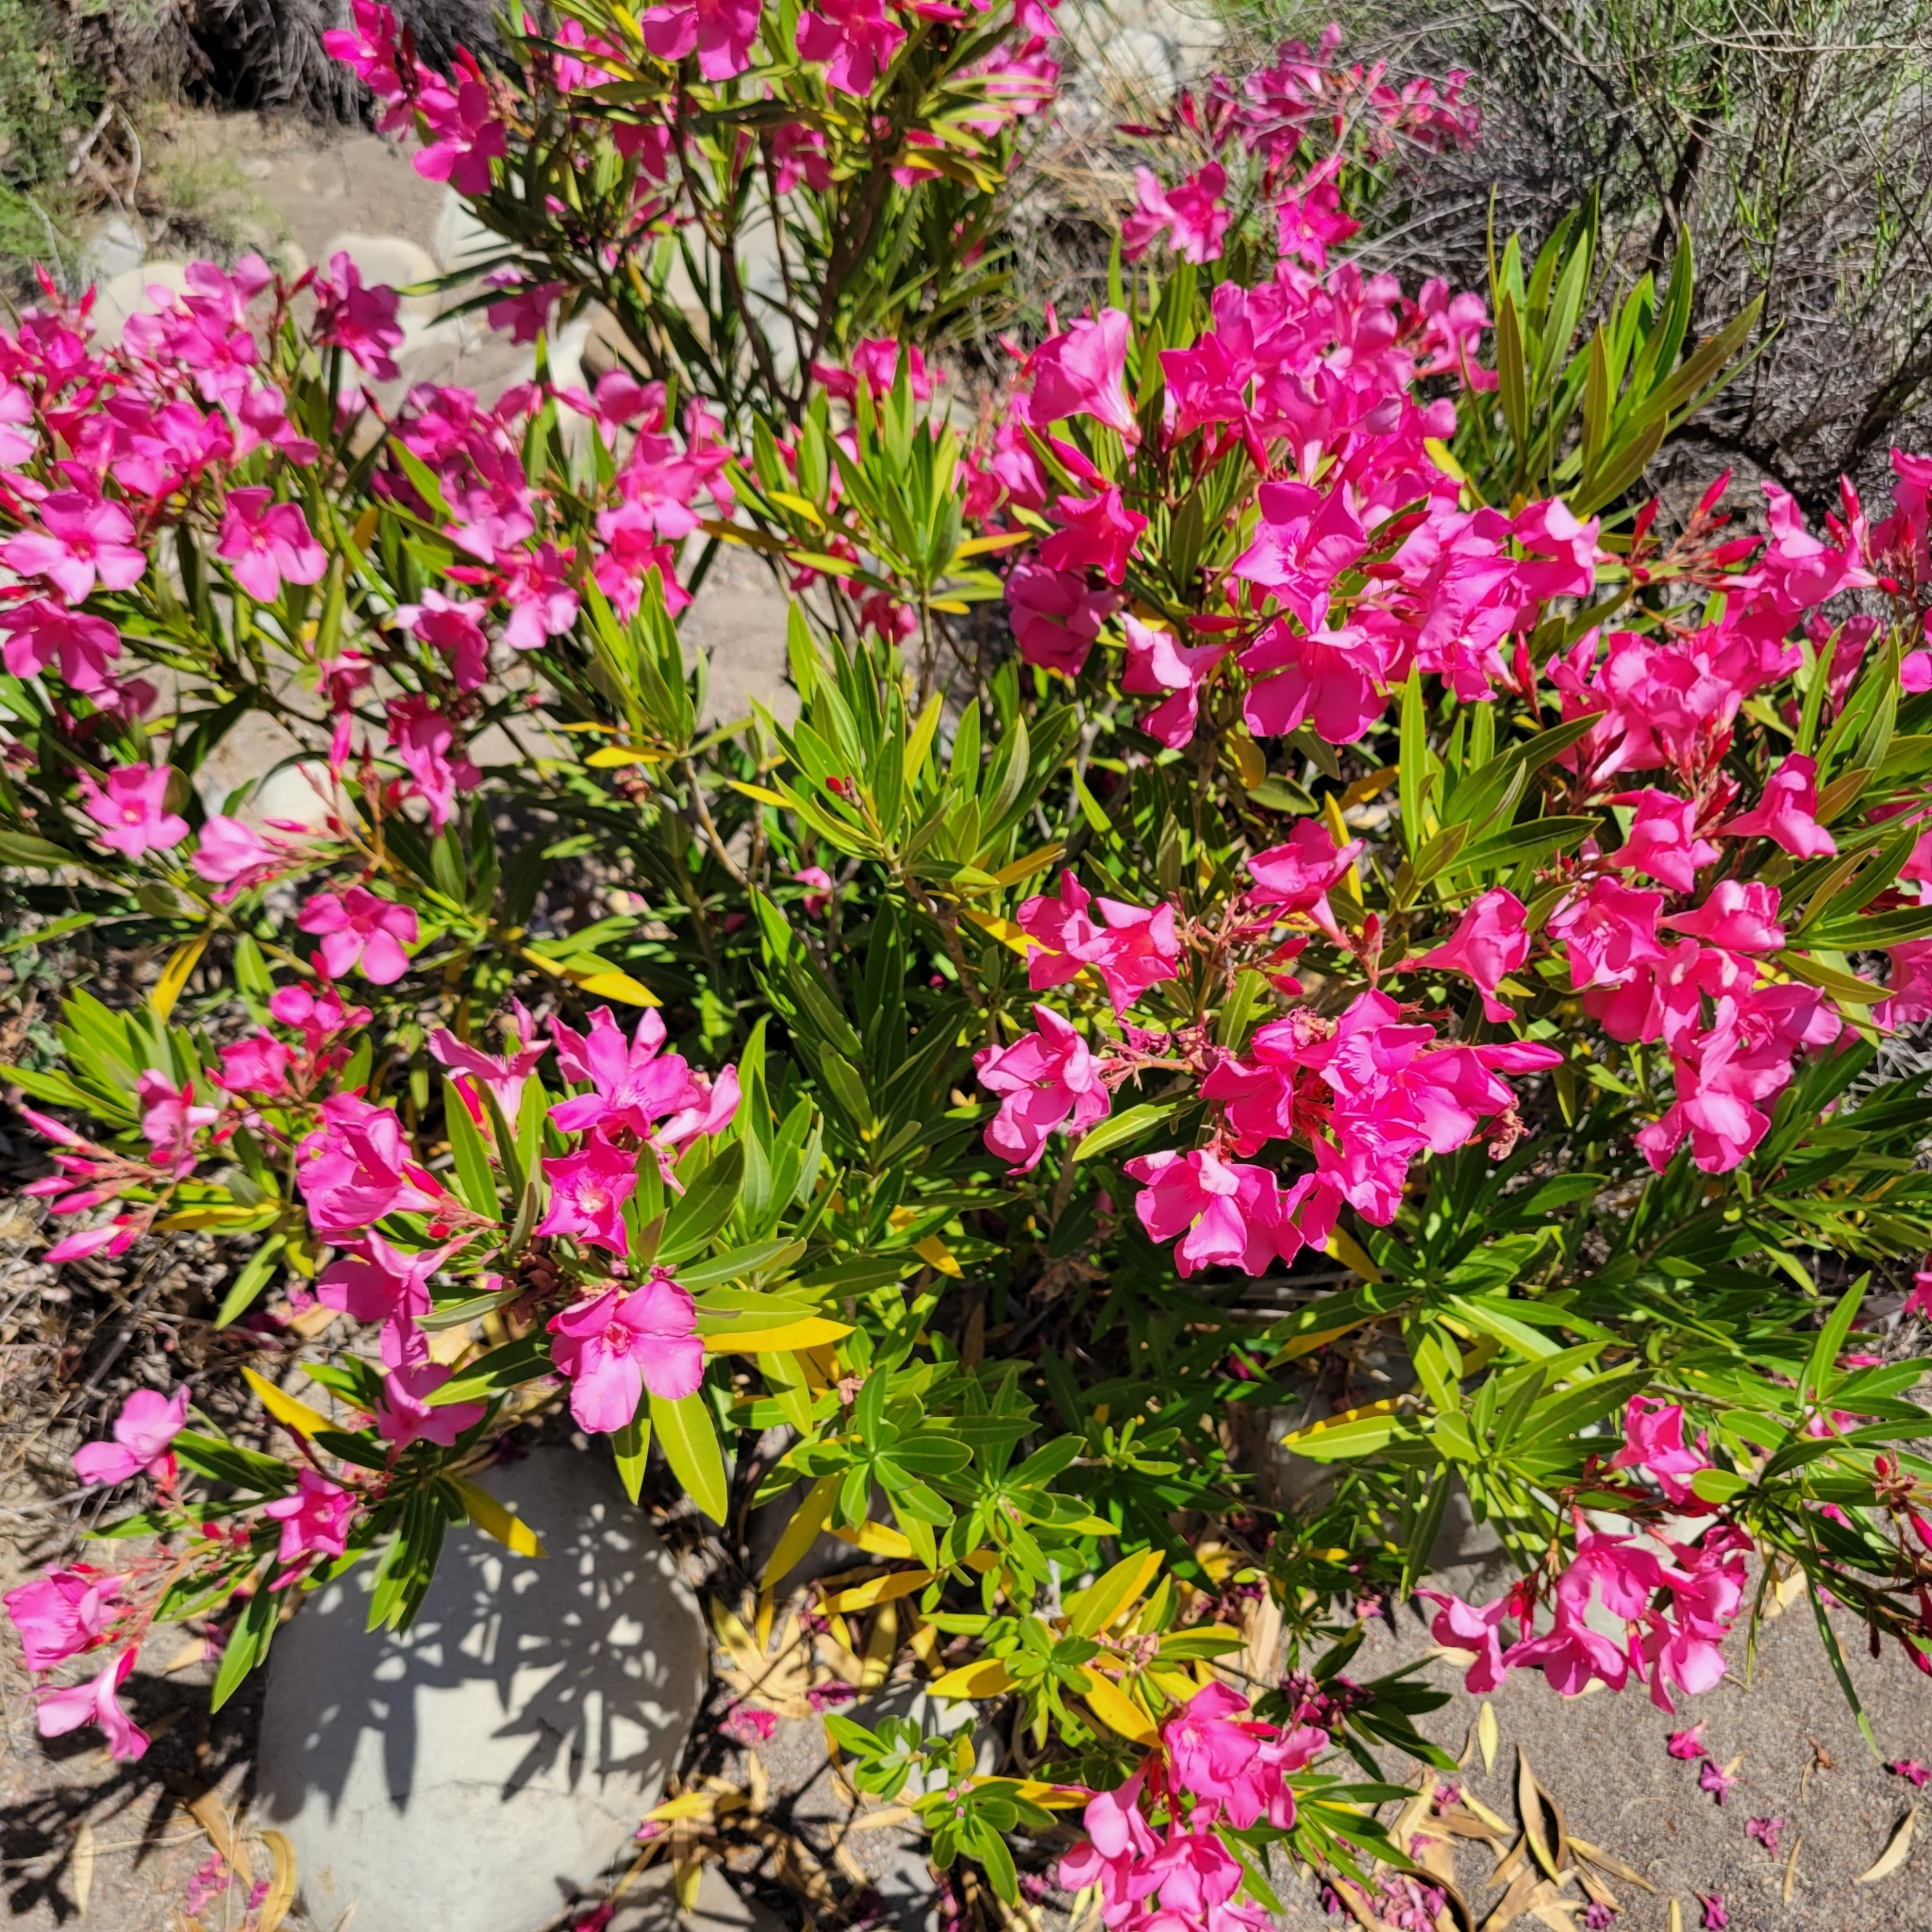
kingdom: Plantae
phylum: Tracheophyta
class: Magnoliopsida
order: Gentianales
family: Apocynaceae
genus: Nerium
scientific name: Nerium oleander
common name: Oleander
